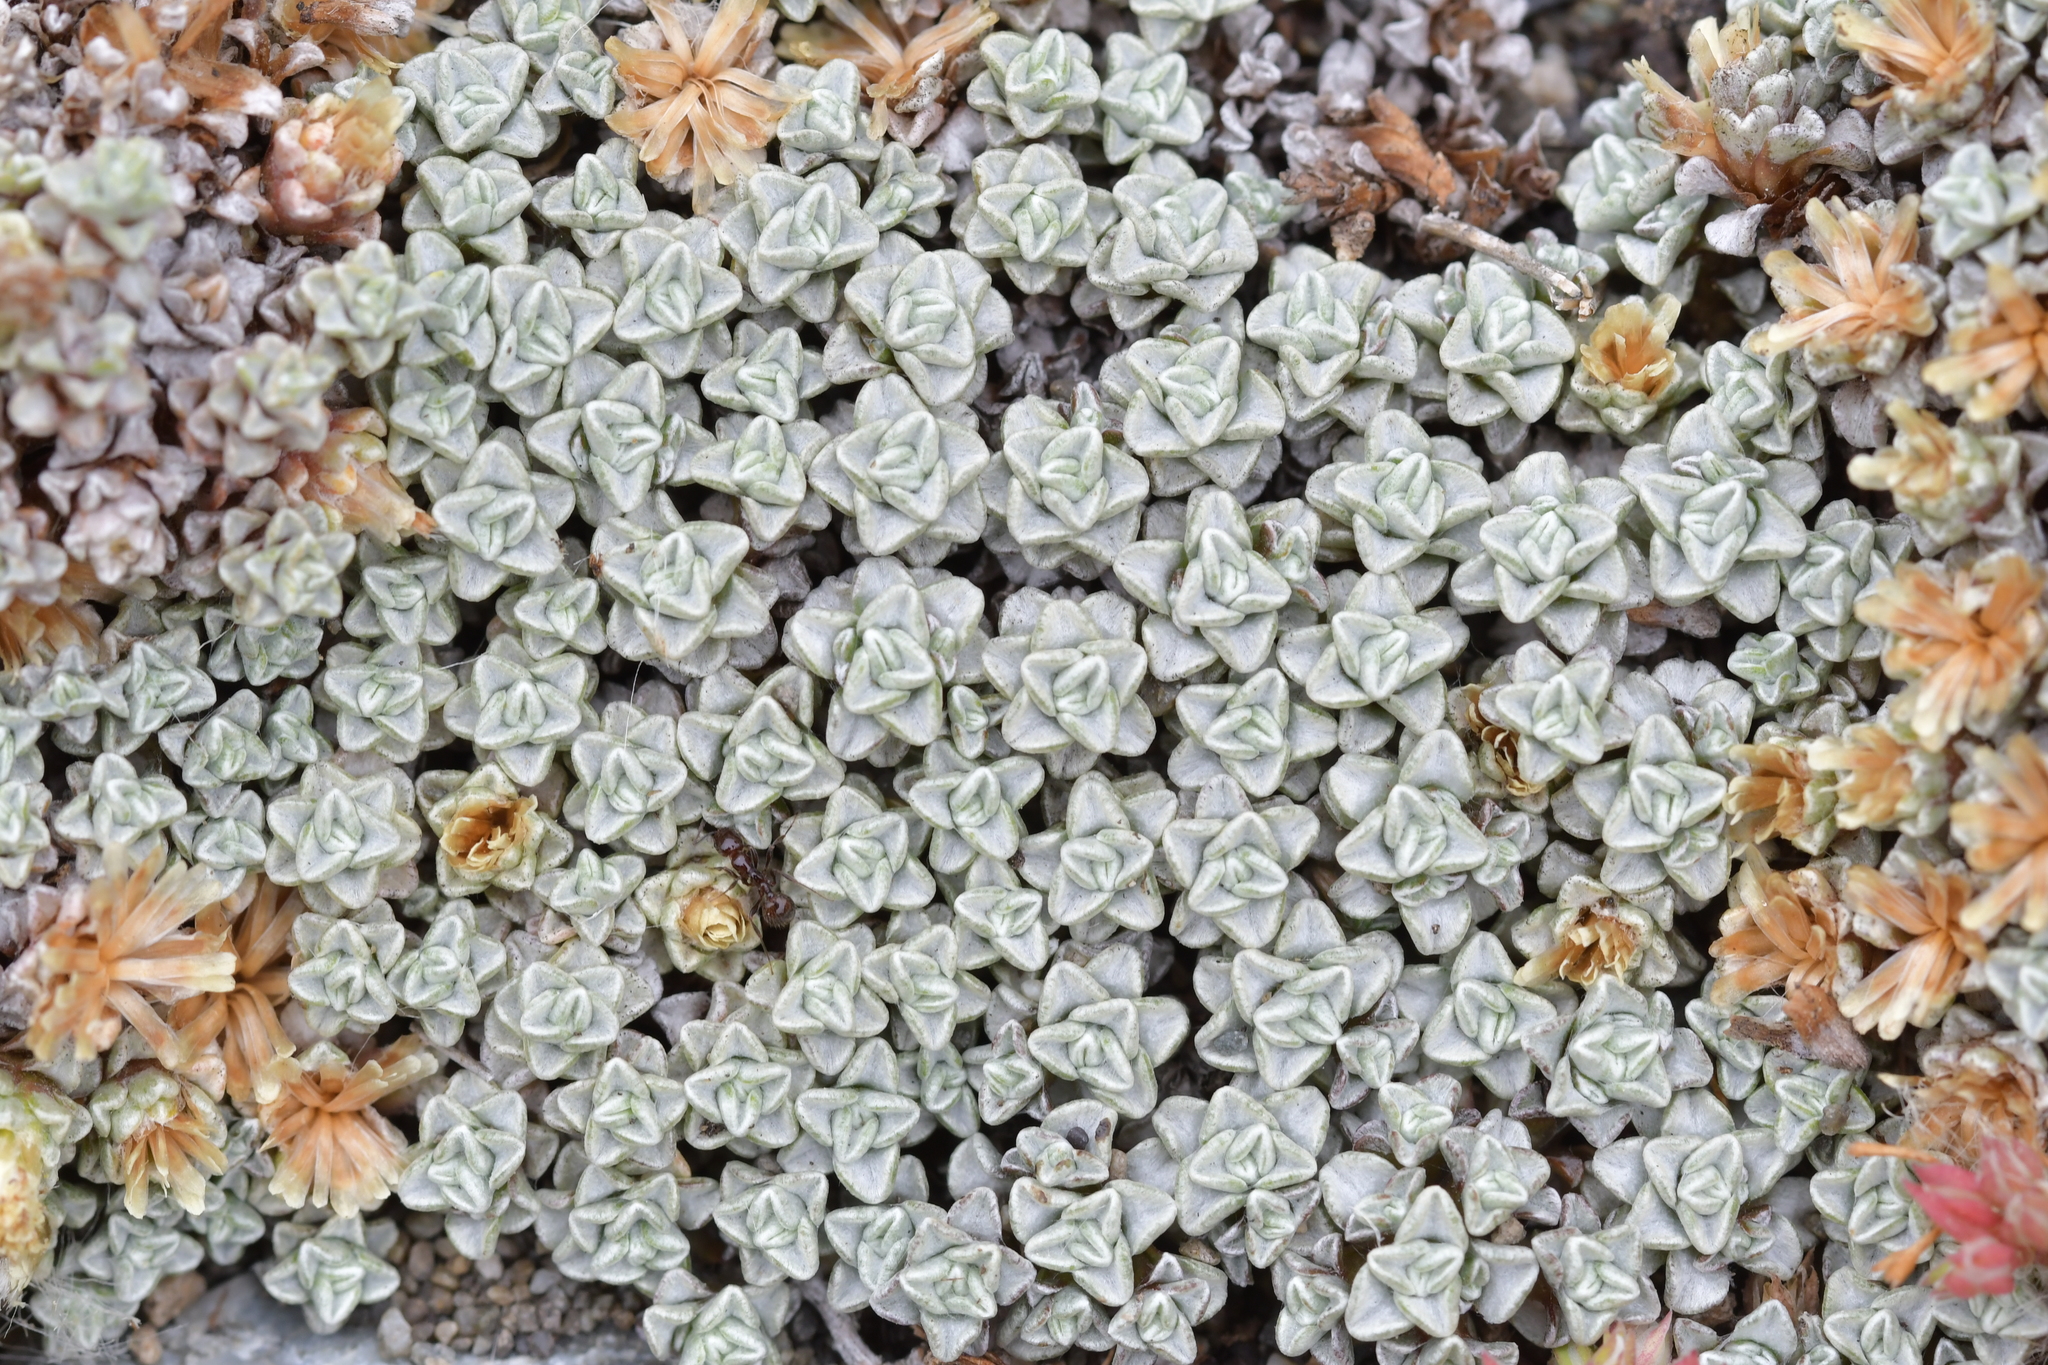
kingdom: Plantae
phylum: Tracheophyta
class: Magnoliopsida
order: Asterales
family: Asteraceae
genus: Raoulia
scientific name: Raoulia hookeri
